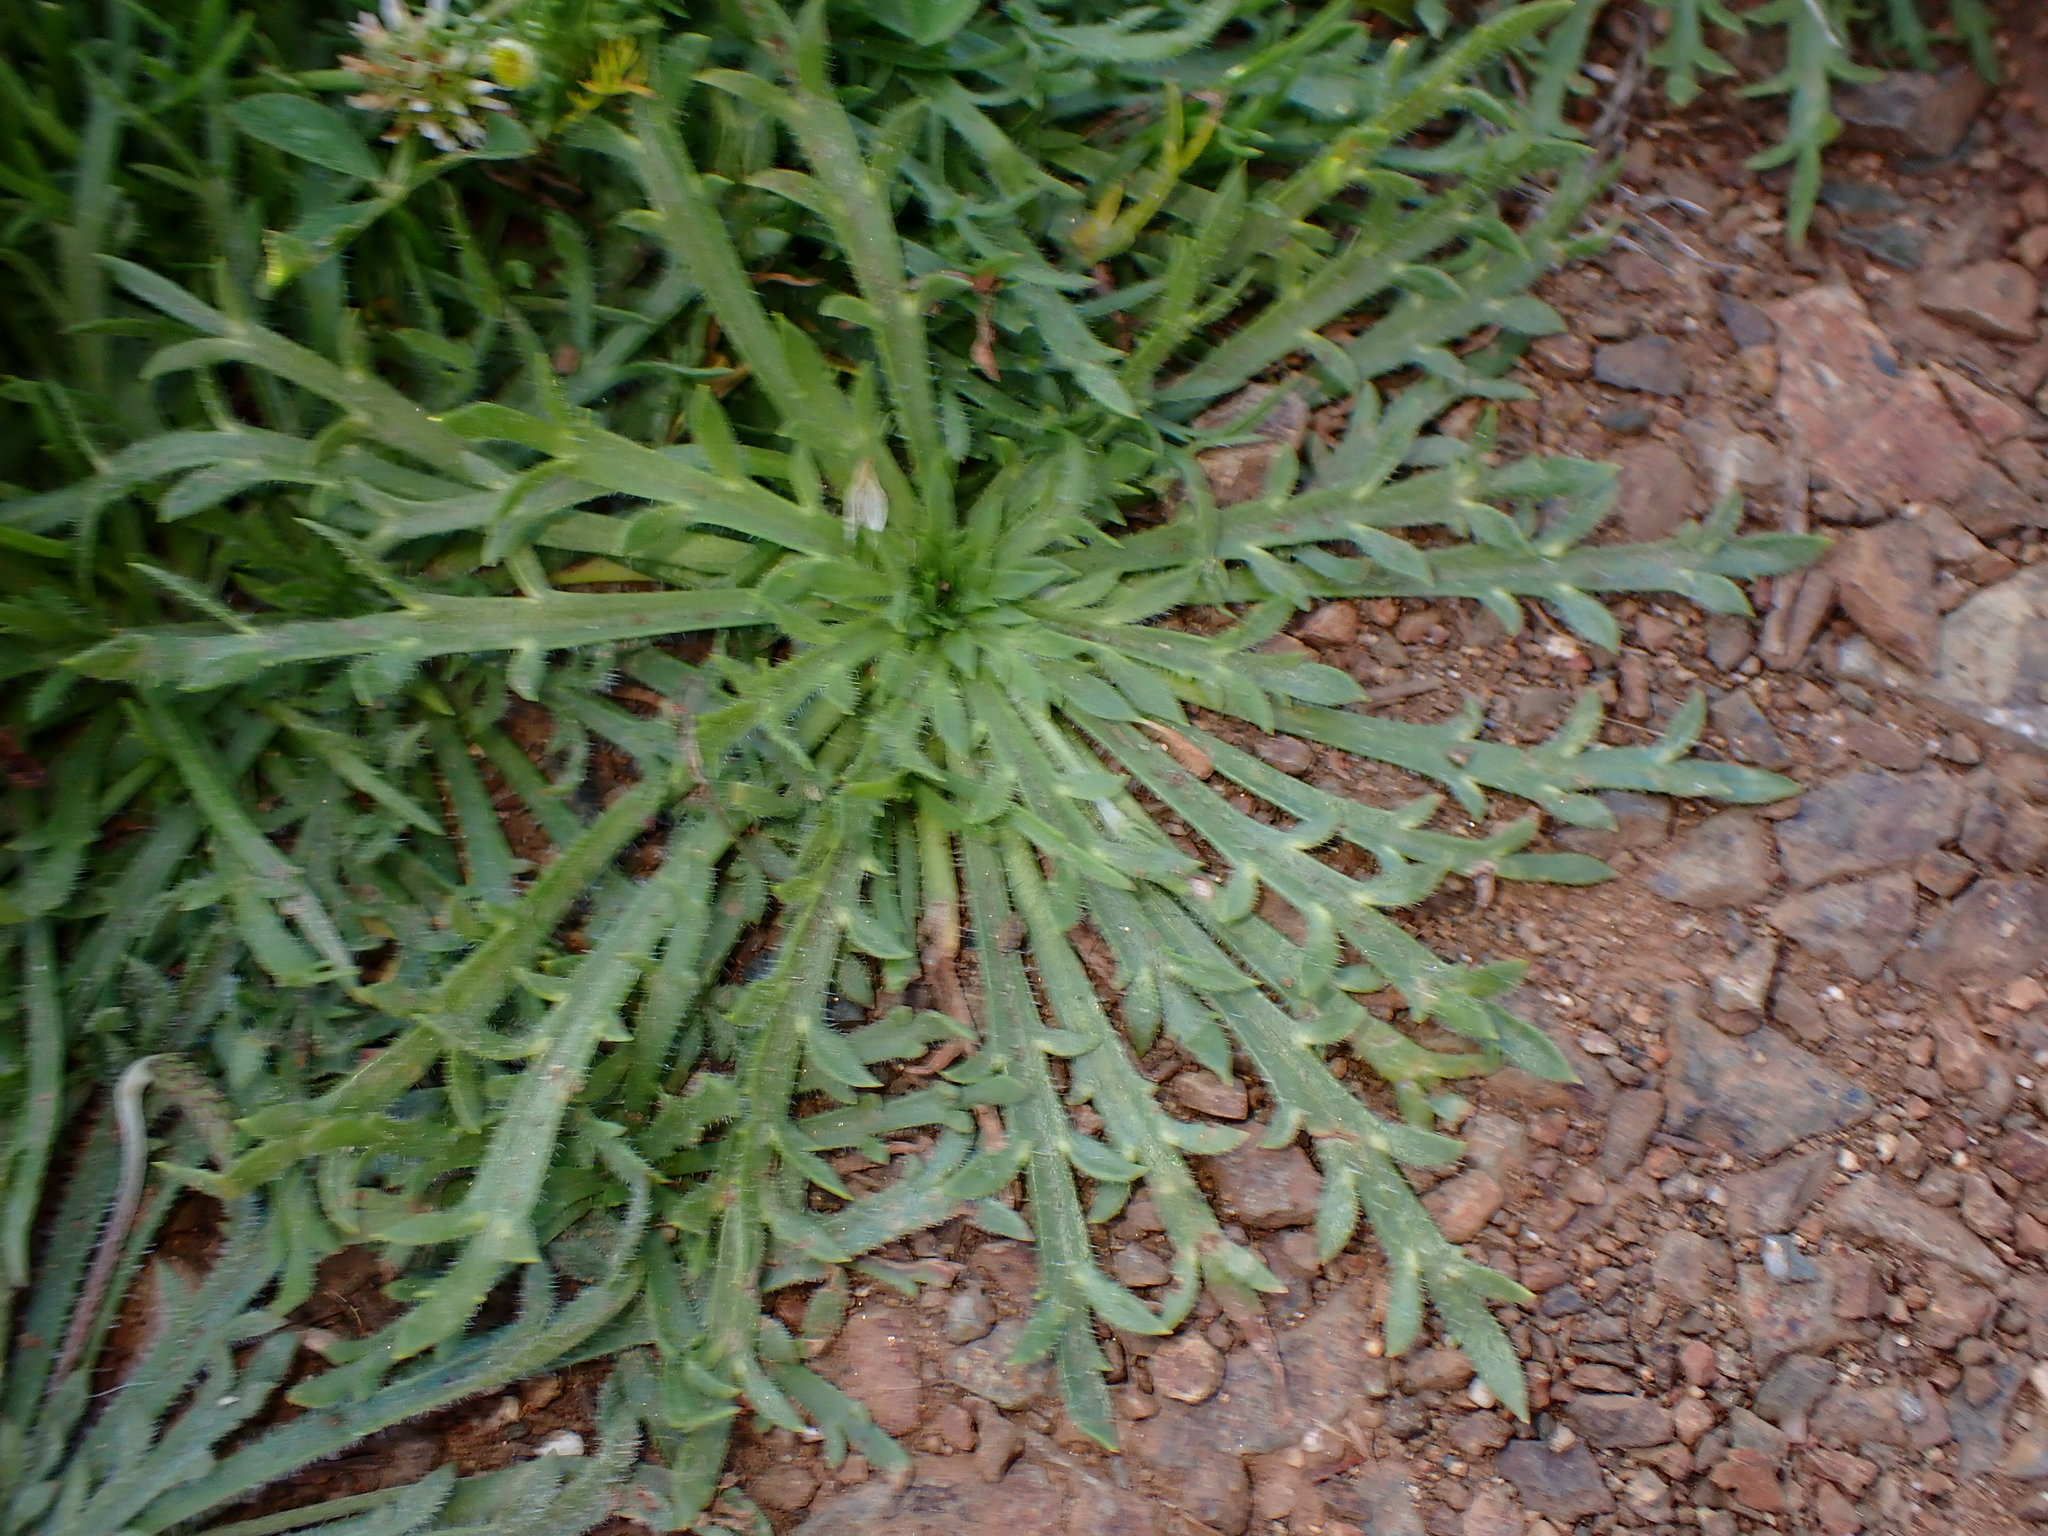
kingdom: Plantae
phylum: Tracheophyta
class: Magnoliopsida
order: Lamiales
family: Plantaginaceae
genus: Plantago
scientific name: Plantago coronopus
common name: Buck's-horn plantain
